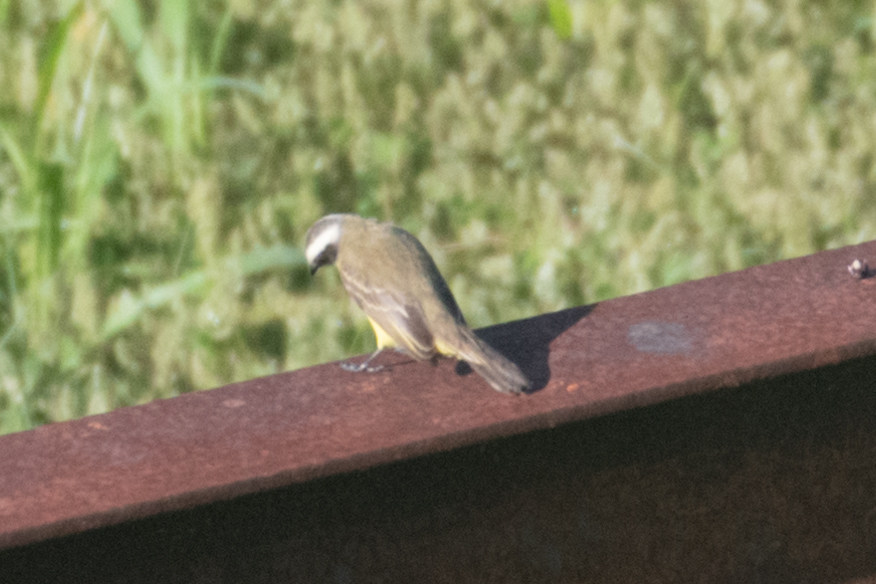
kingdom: Animalia
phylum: Chordata
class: Aves
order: Passeriformes
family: Tyrannidae
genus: Myiozetetes
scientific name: Myiozetetes similis
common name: Social flycatcher
